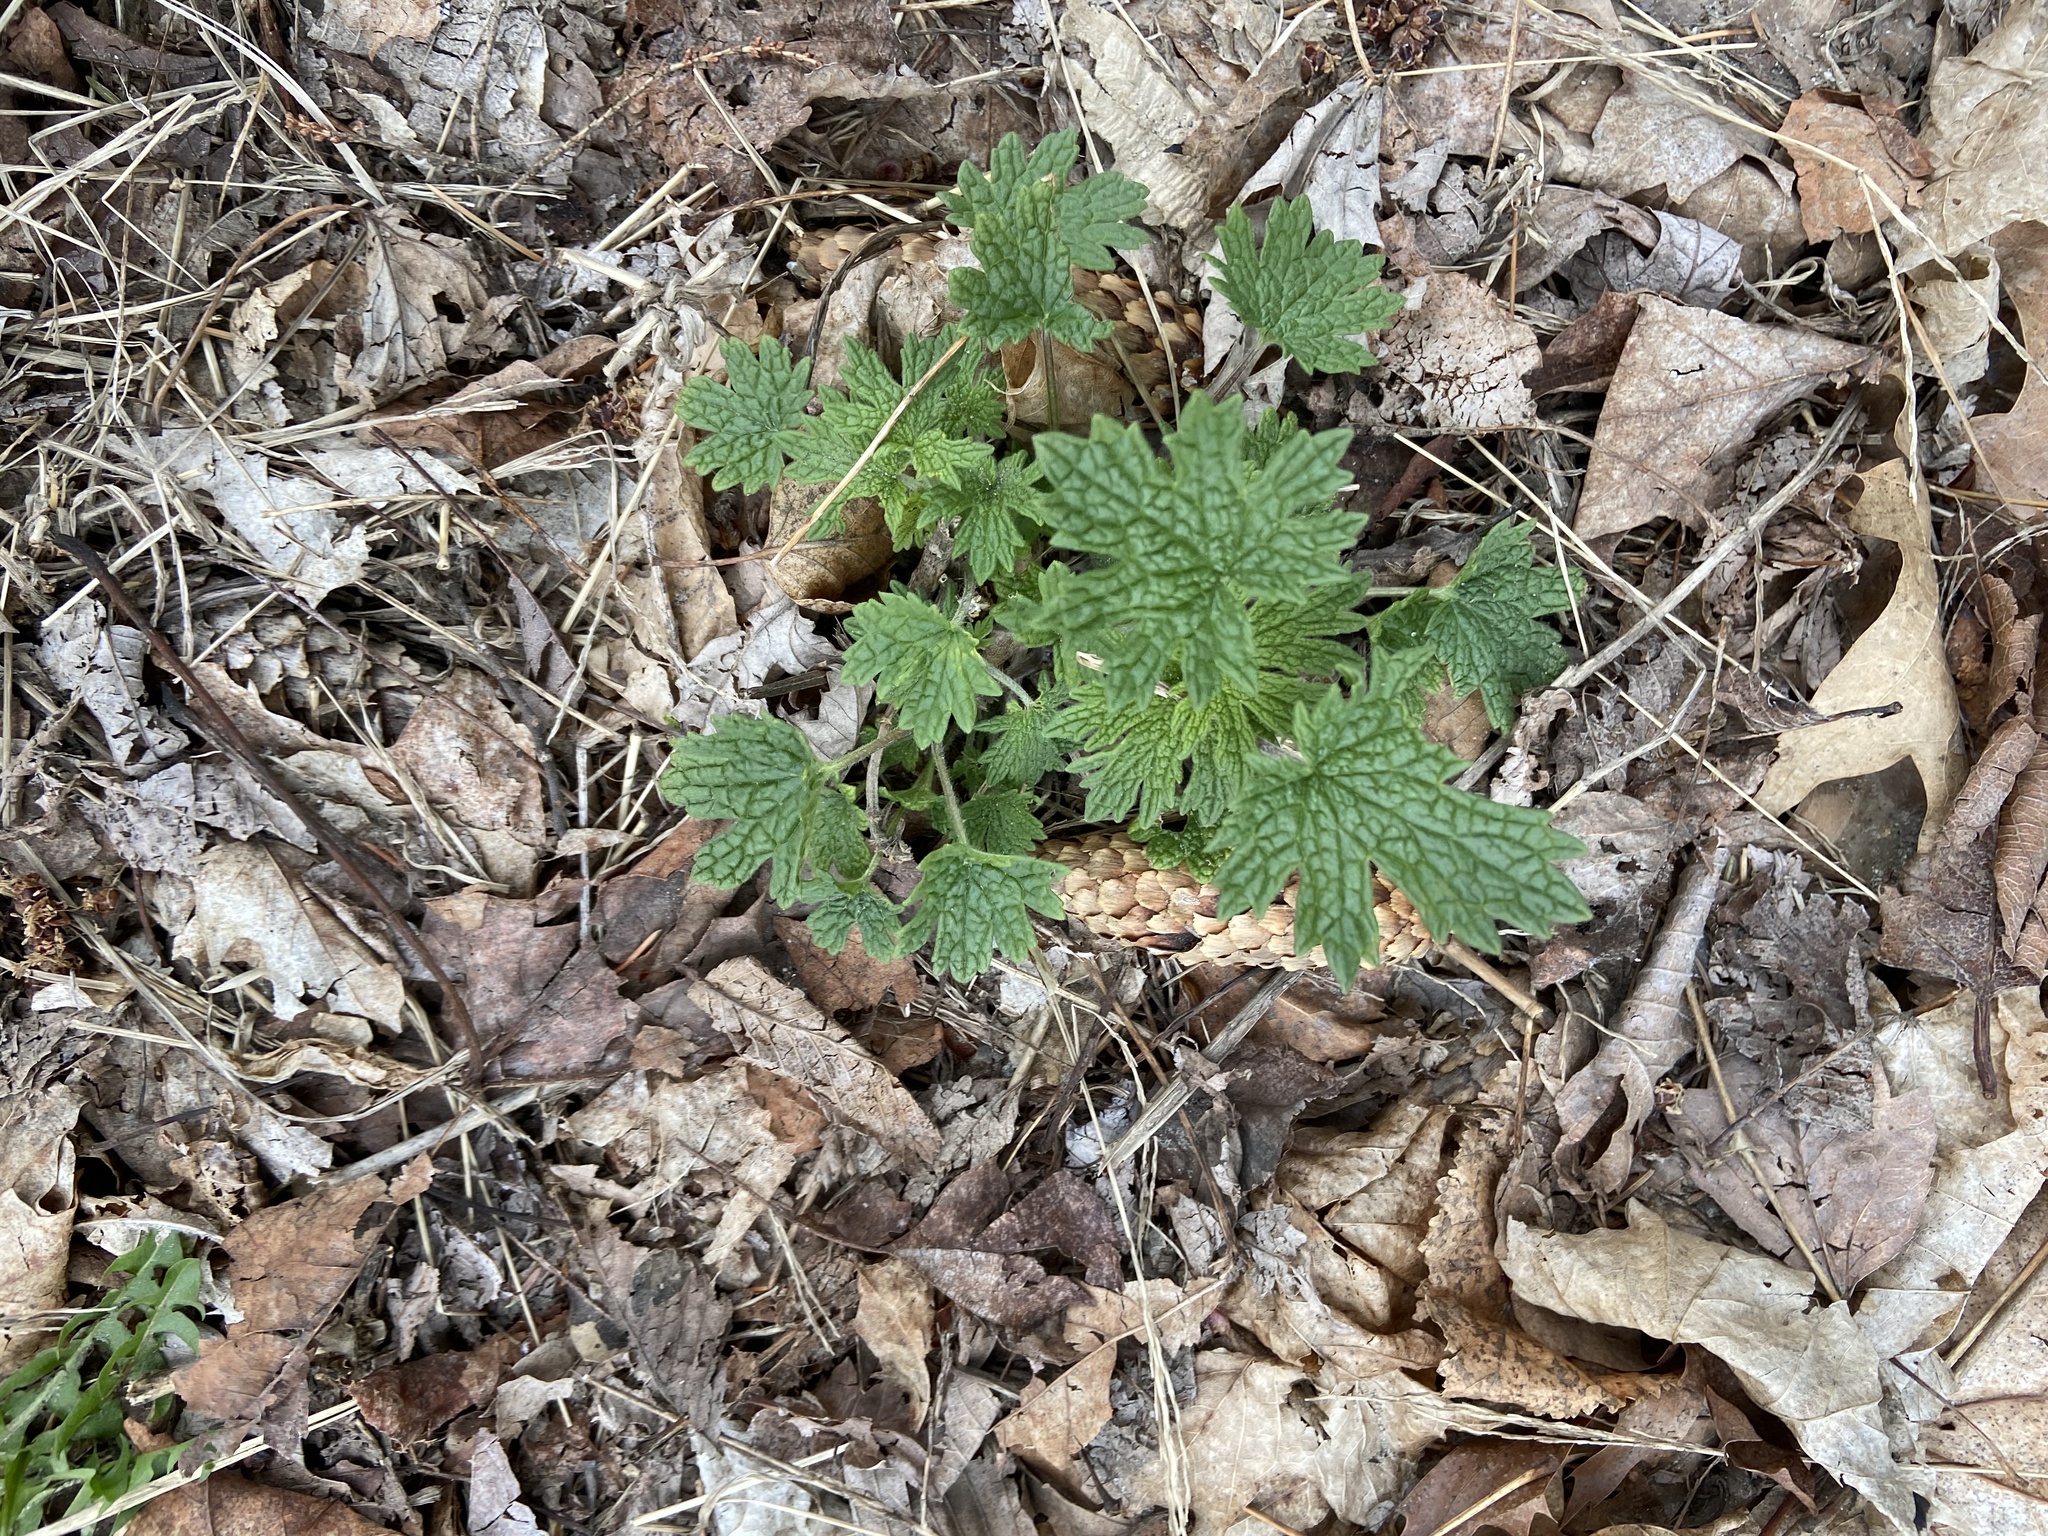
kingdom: Plantae
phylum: Tracheophyta
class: Magnoliopsida
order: Lamiales
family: Lamiaceae
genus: Leonurus
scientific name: Leonurus cardiaca
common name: Motherwort
